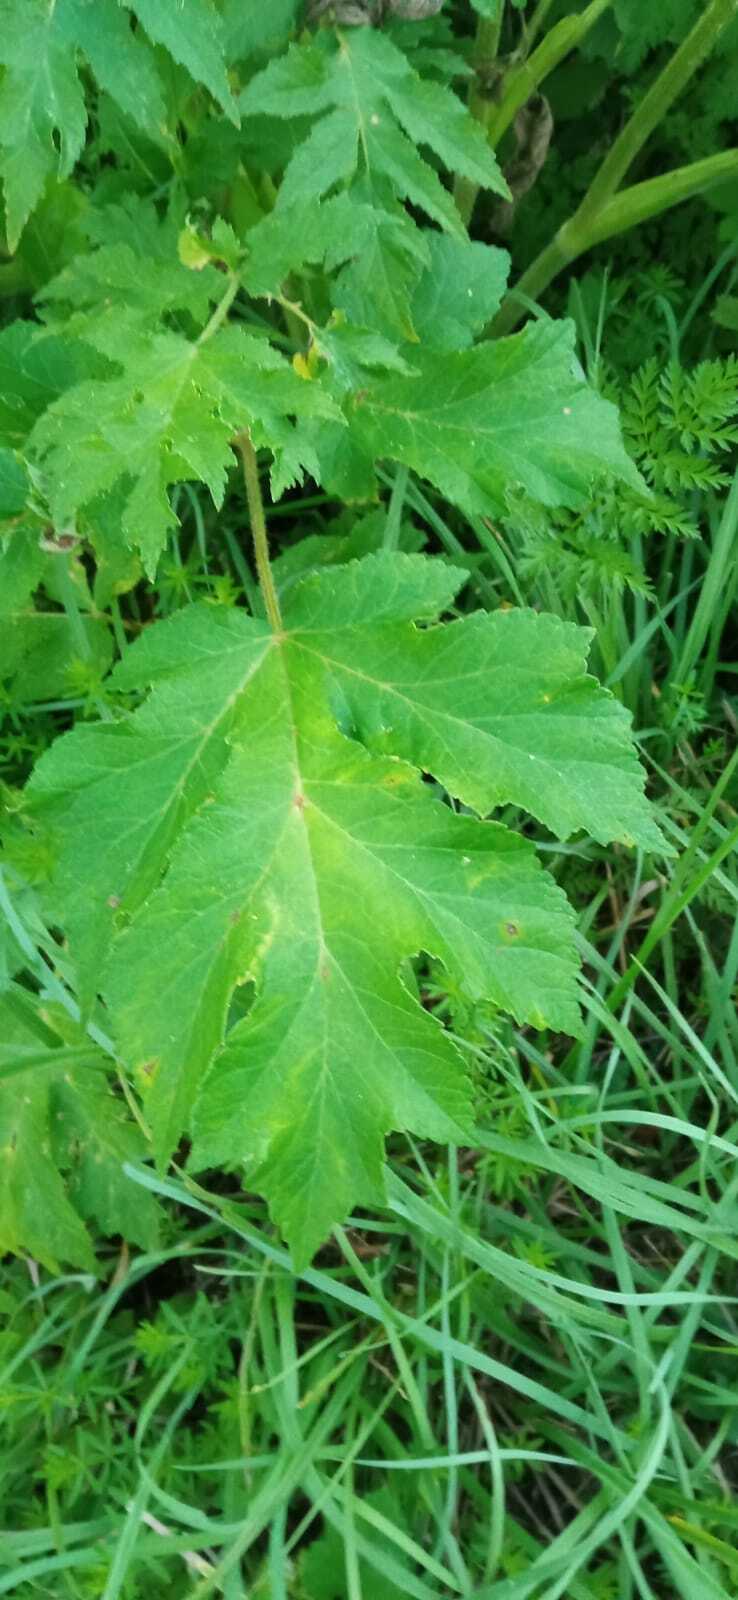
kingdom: Plantae
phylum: Tracheophyta
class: Magnoliopsida
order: Apiales
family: Apiaceae
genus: Heracleum
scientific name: Heracleum sphondylium
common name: Hogweed
